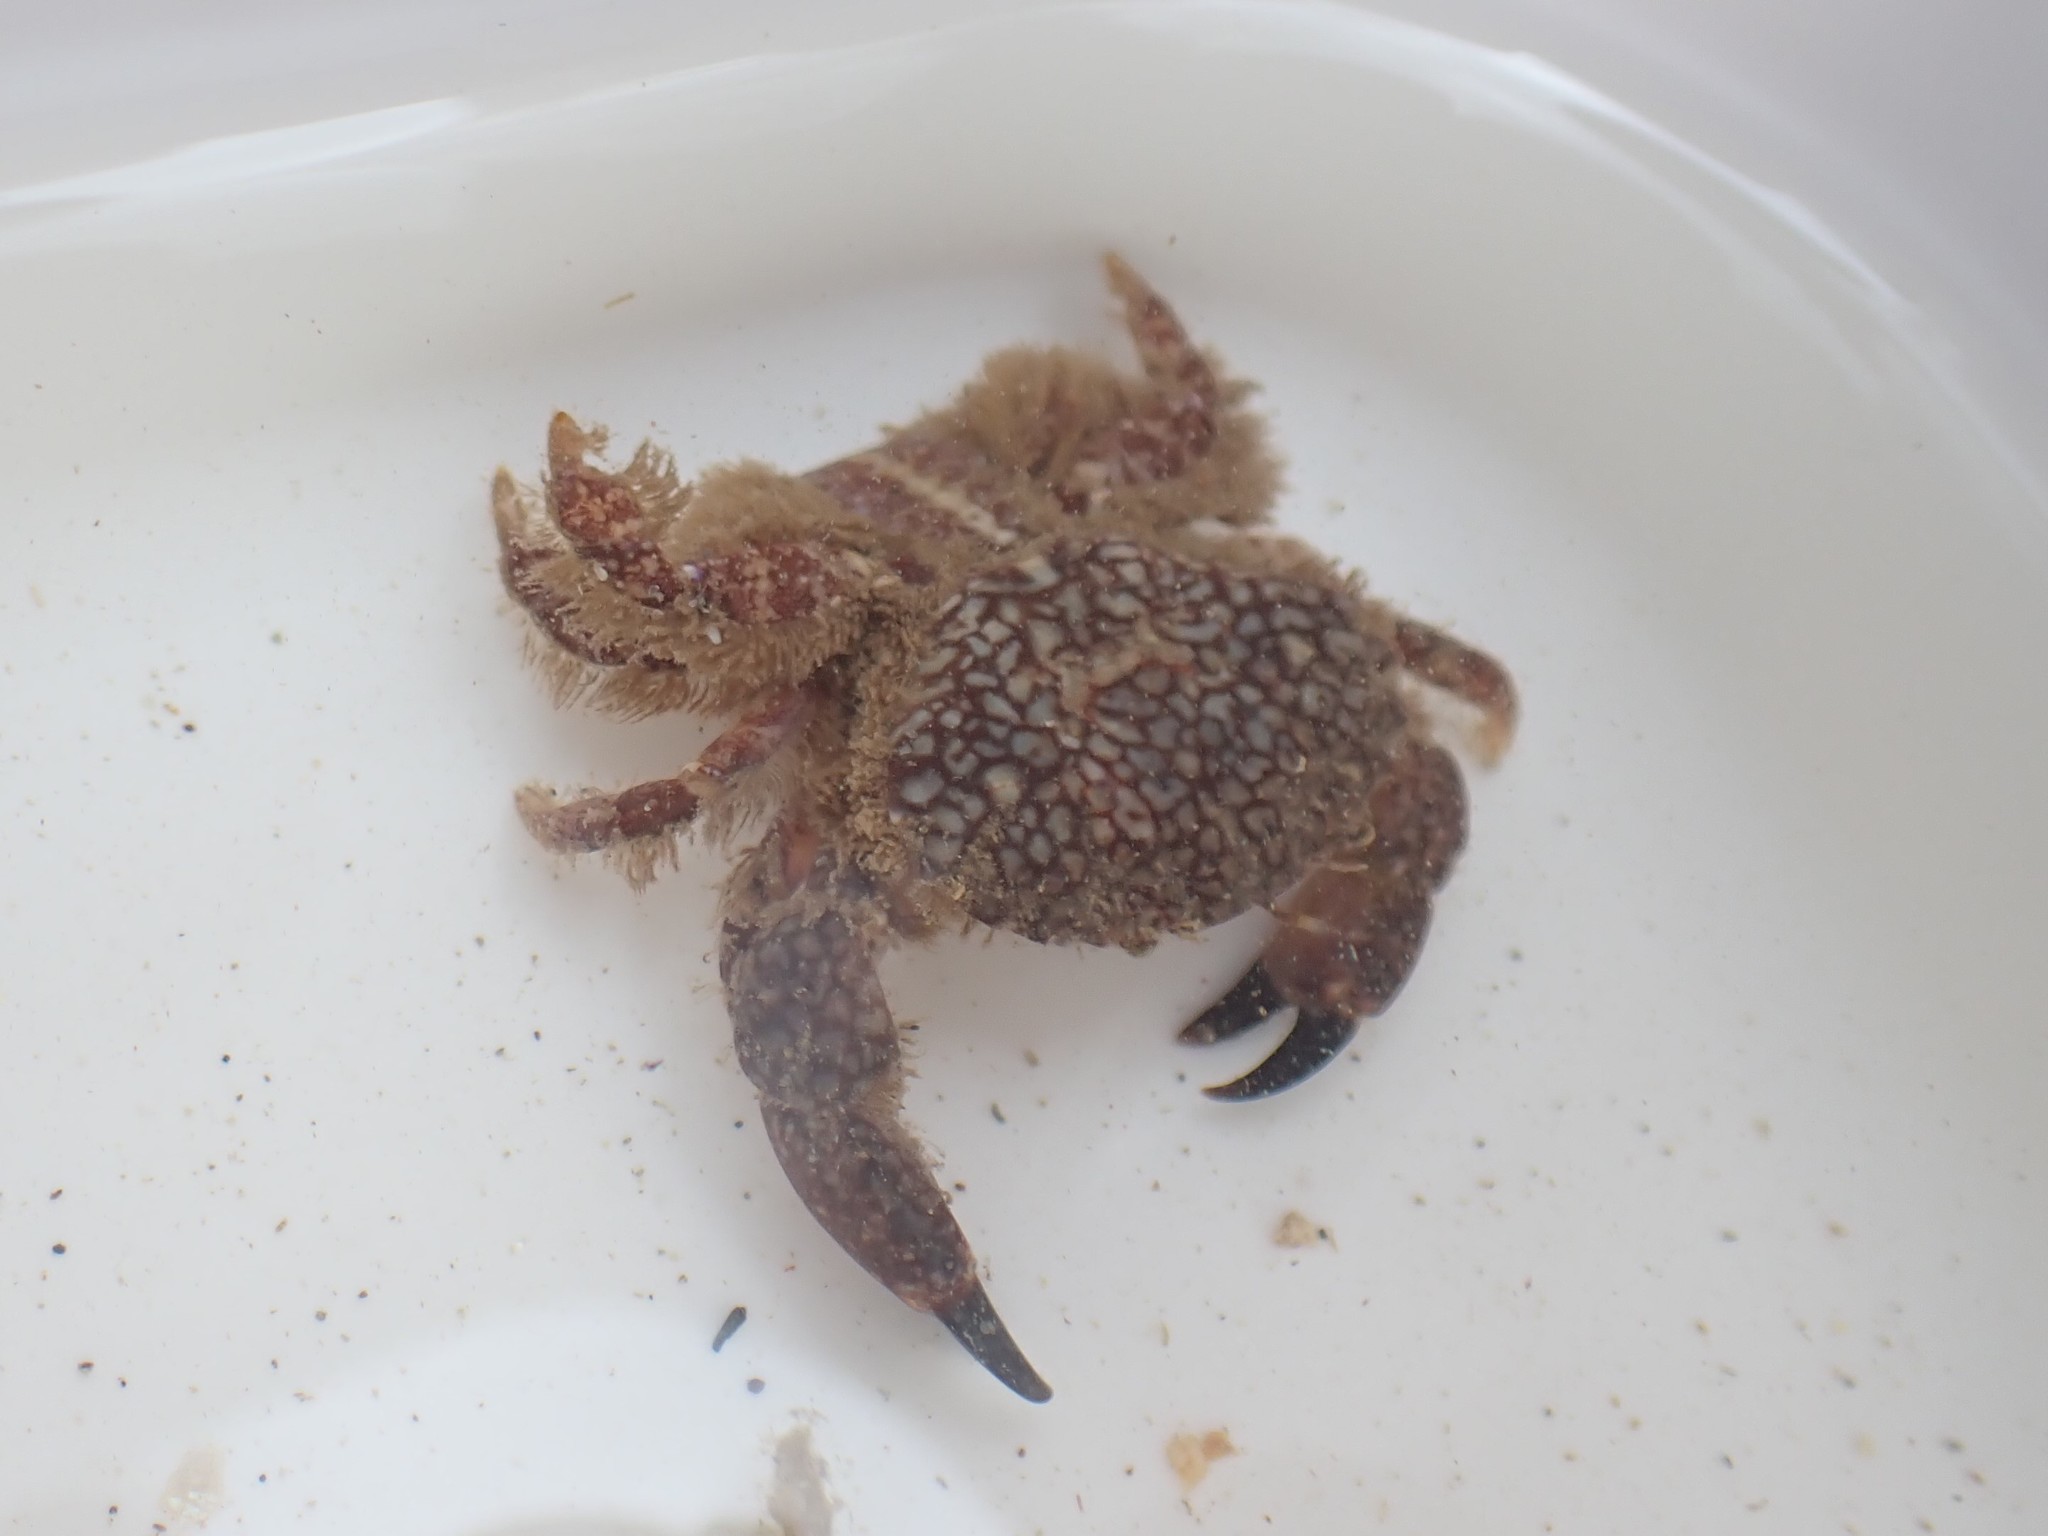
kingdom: Animalia
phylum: Arthropoda
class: Malacostraca
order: Decapoda
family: Xanthidae
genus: Xantho
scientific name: Xantho pilipes
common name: Risso's crab
